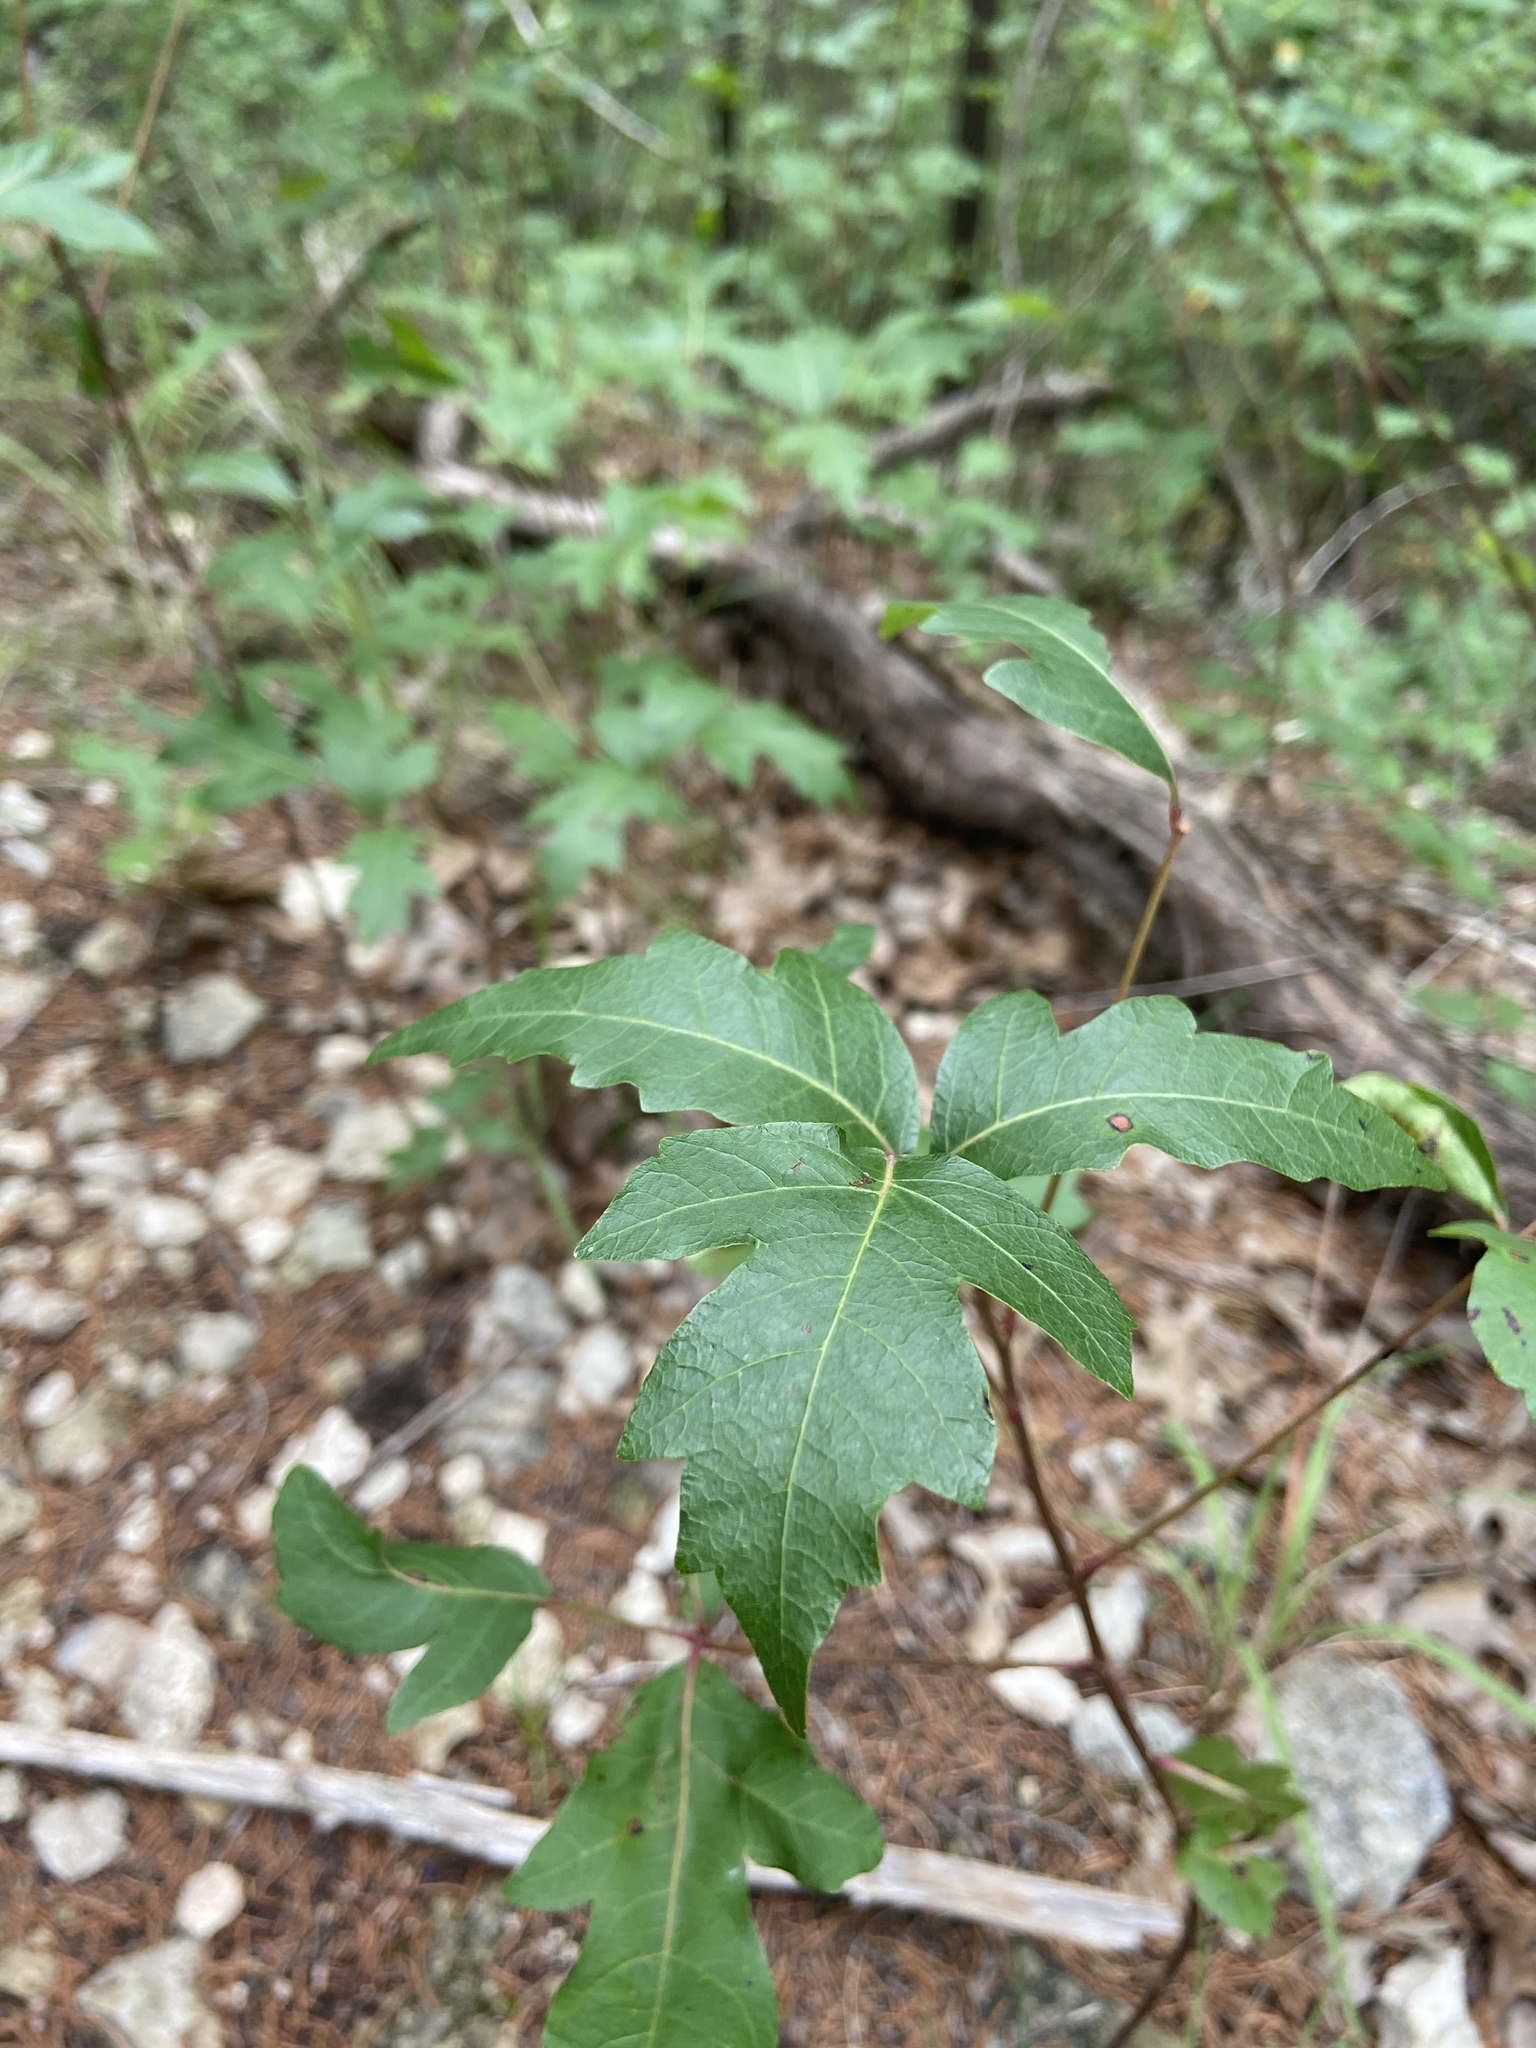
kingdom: Plantae
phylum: Tracheophyta
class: Magnoliopsida
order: Sapindales
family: Anacardiaceae
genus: Toxicodendron
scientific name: Toxicodendron radicans
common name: Poison ivy
